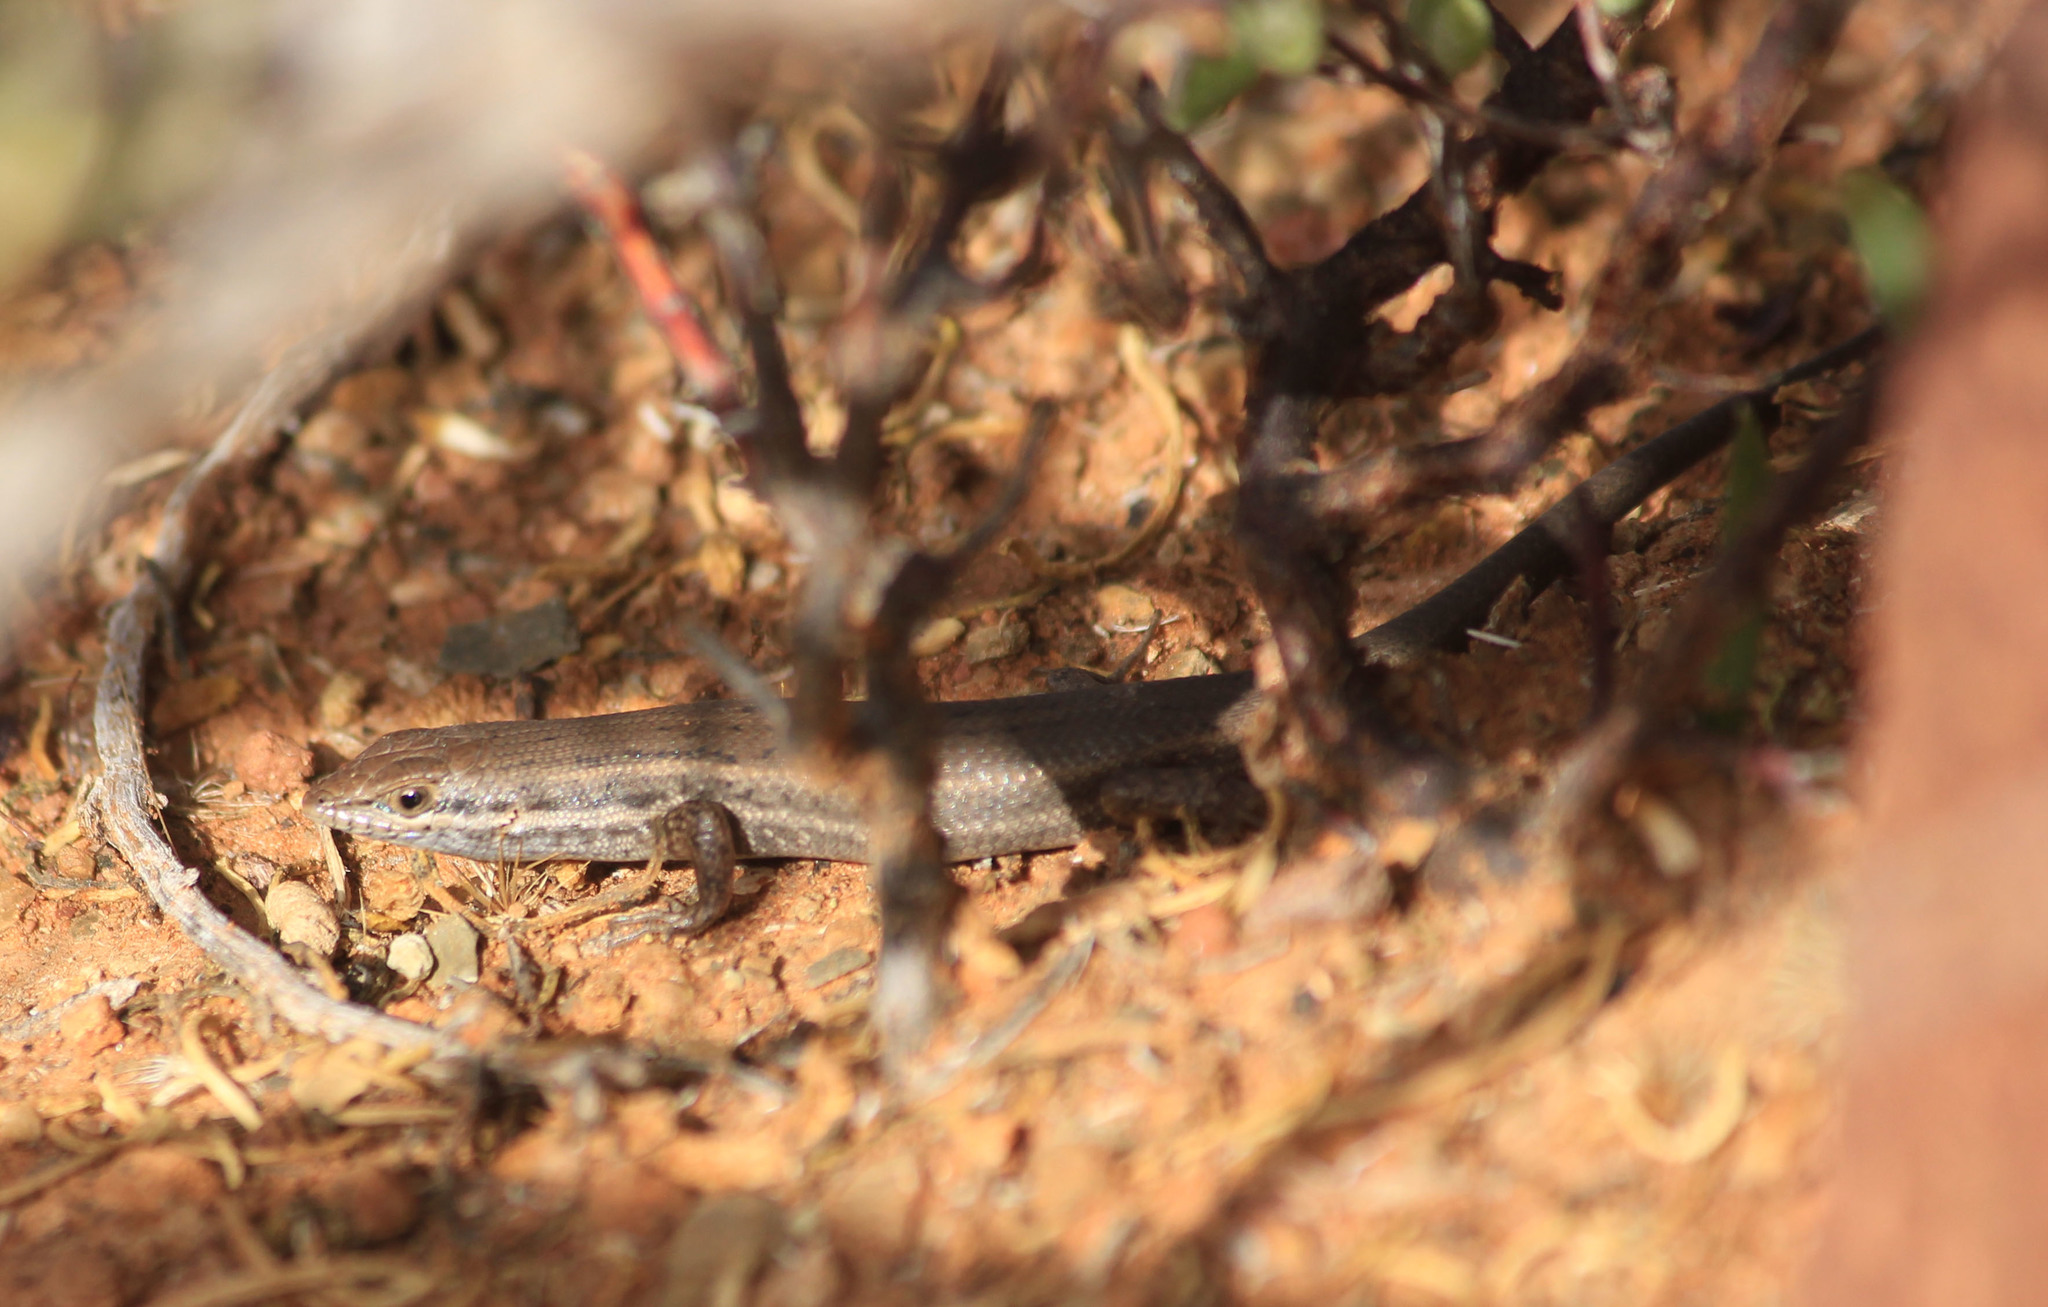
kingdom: Animalia
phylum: Chordata
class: Squamata
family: Scincidae
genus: Trachylepis
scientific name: Trachylepis variegata
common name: Variegated skink
